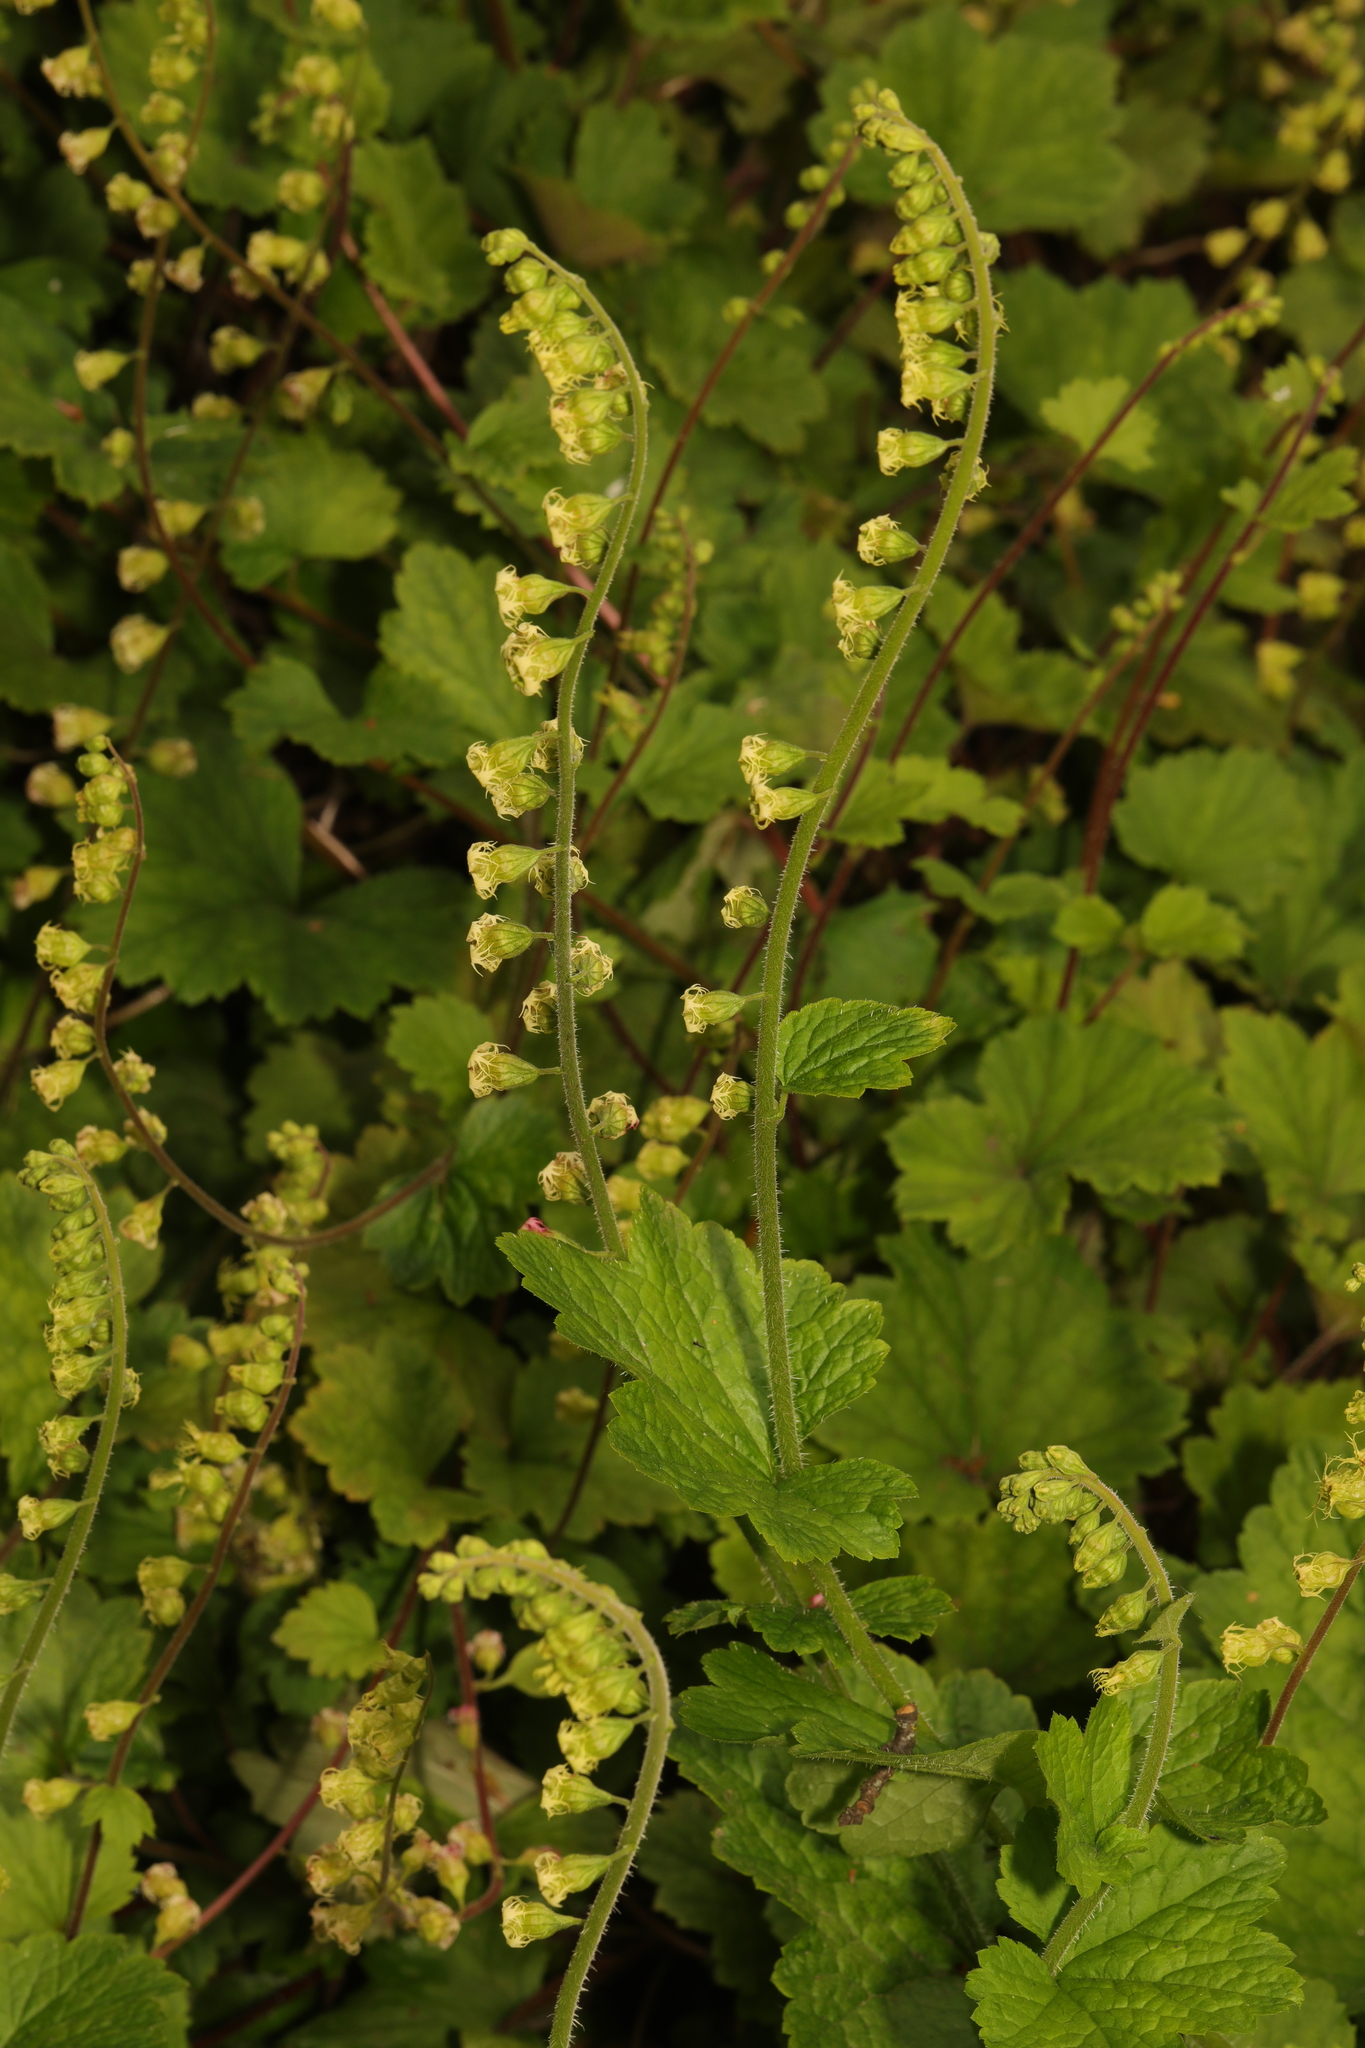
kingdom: Plantae
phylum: Tracheophyta
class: Magnoliopsida
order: Saxifragales
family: Saxifragaceae
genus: Tellima
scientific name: Tellima grandiflora
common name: Fringecups
